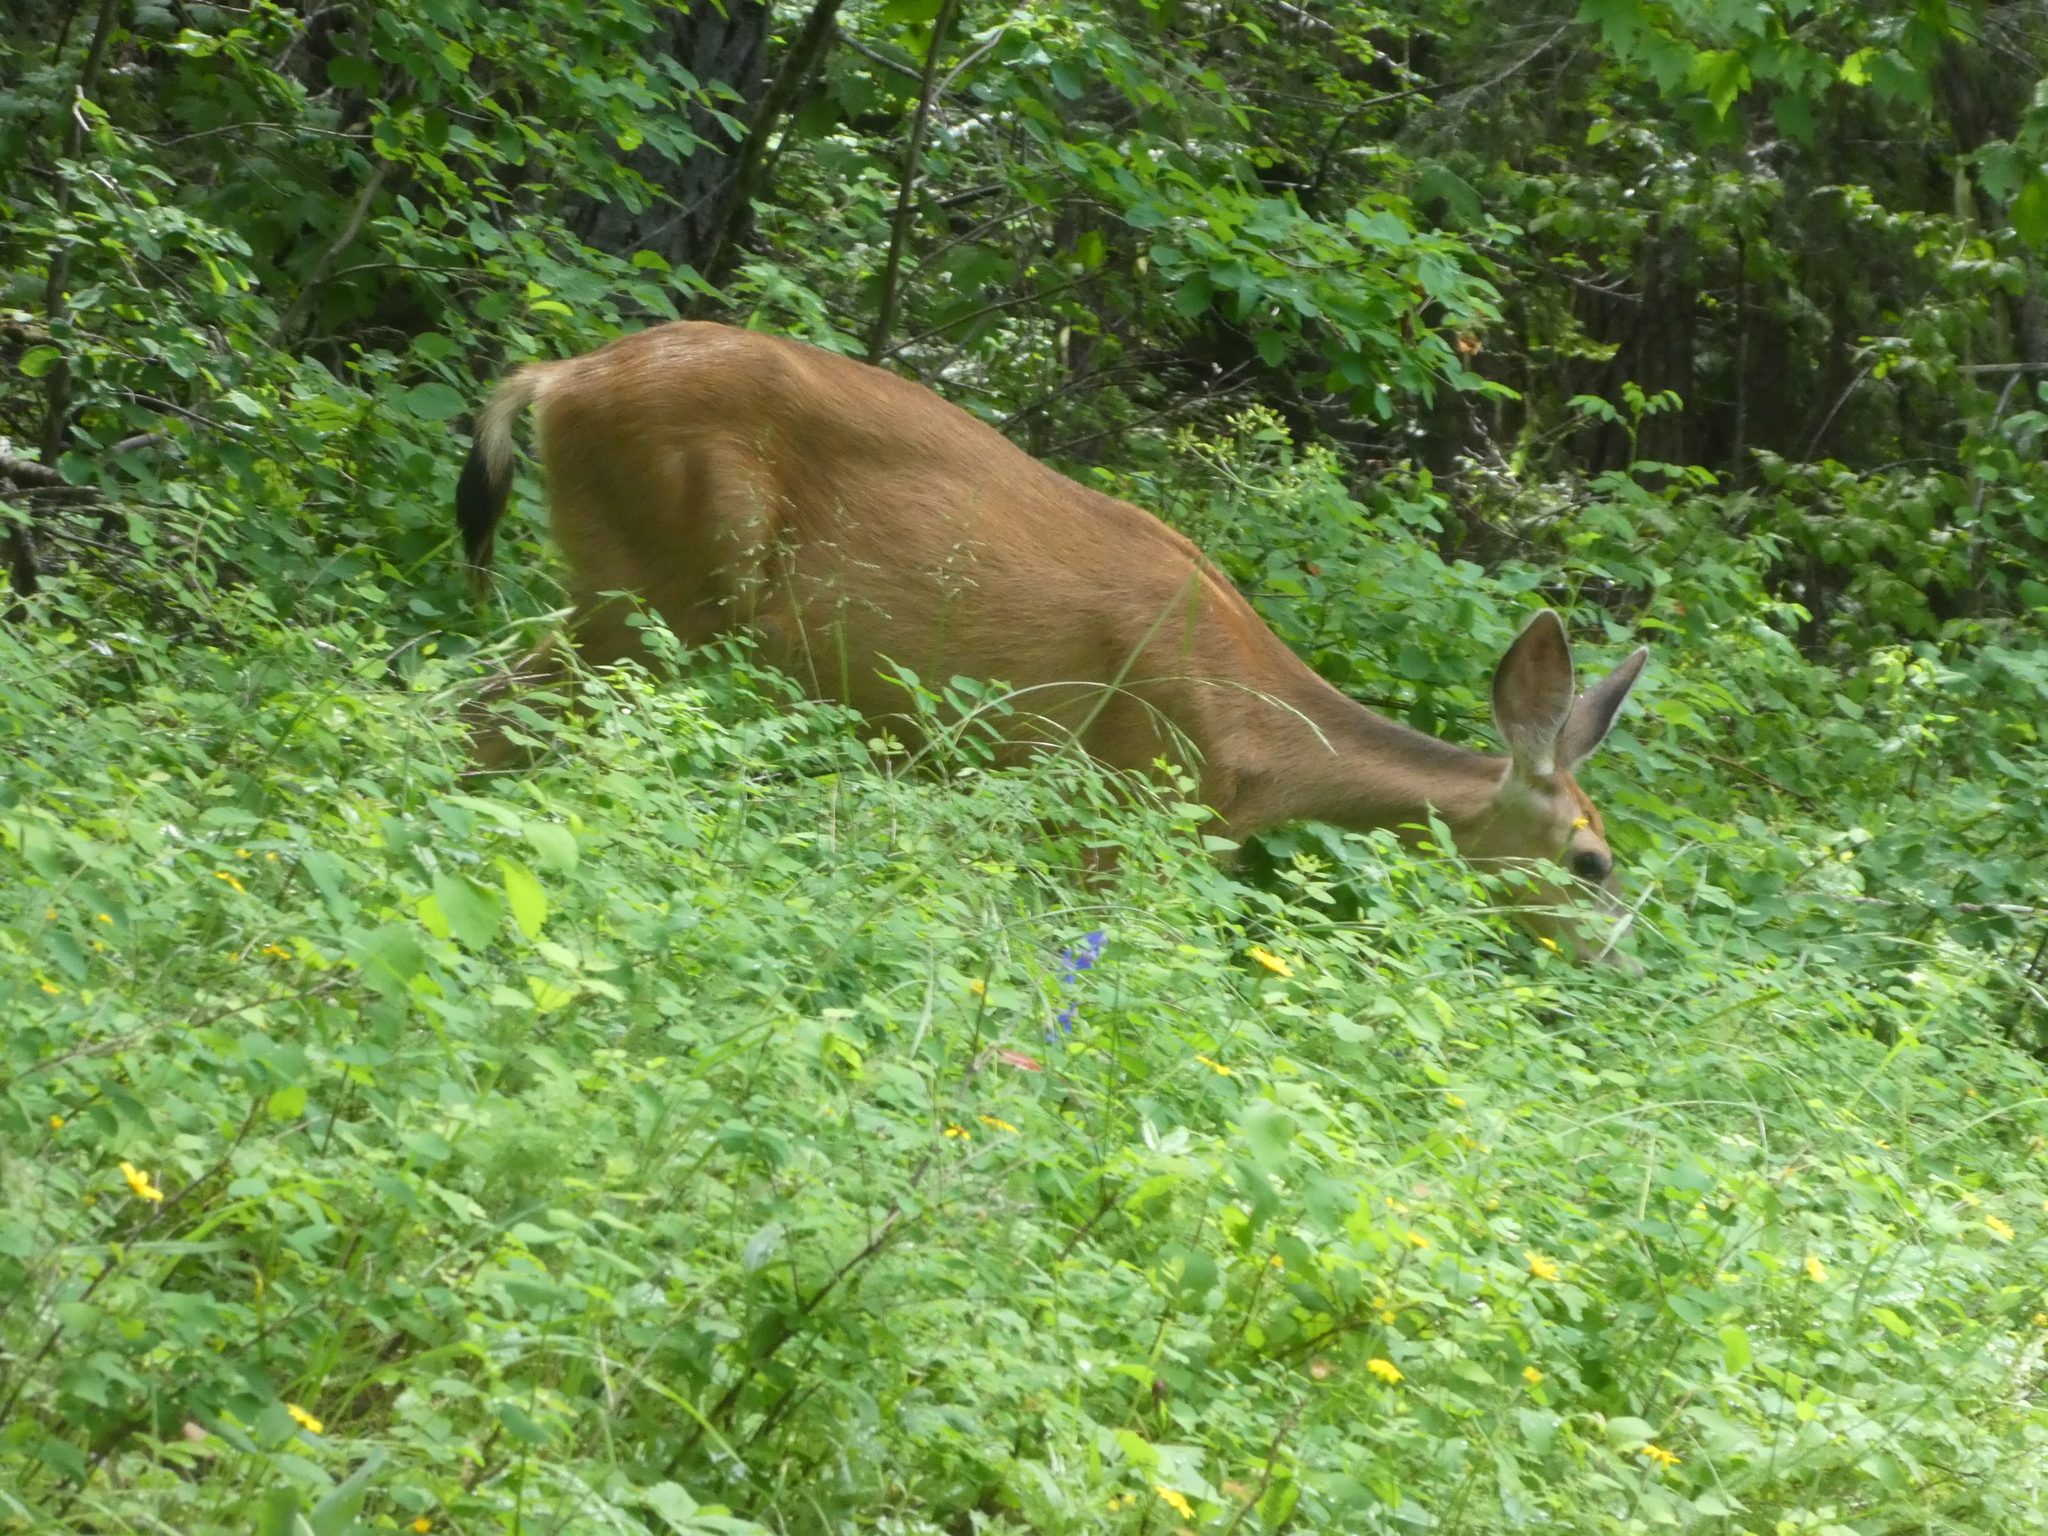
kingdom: Animalia
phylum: Chordata
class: Mammalia
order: Artiodactyla
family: Cervidae
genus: Odocoileus
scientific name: Odocoileus hemionus
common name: Mule deer
